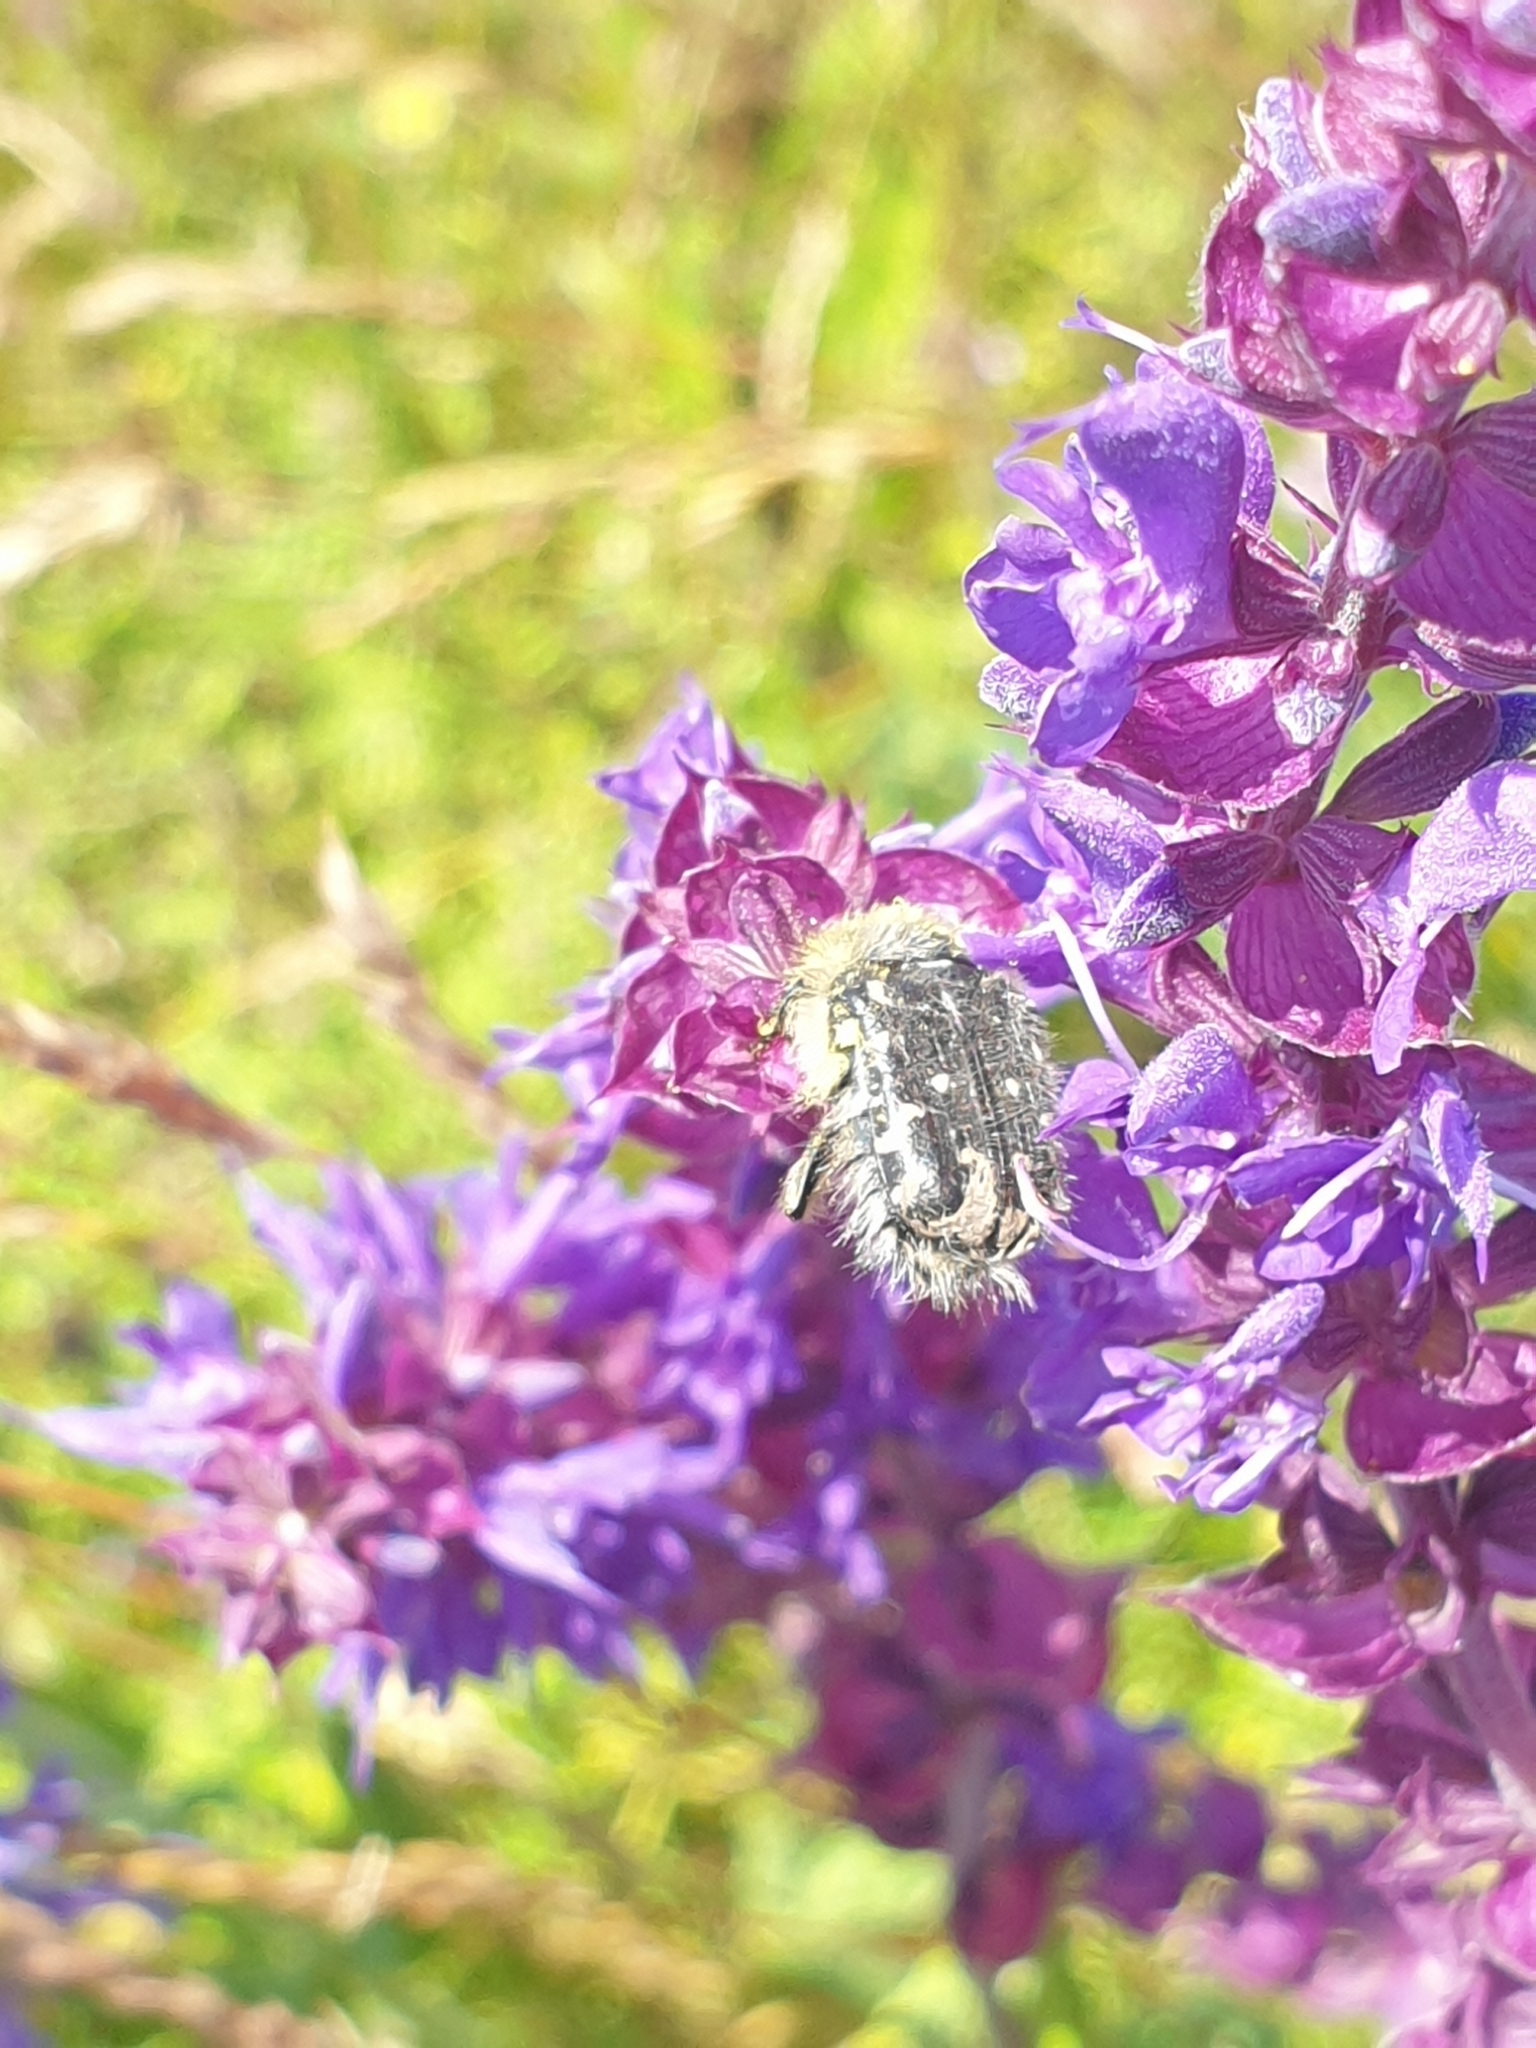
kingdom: Animalia
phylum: Arthropoda
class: Insecta
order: Coleoptera
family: Scarabaeidae
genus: Tropinota
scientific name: Tropinota hirta
